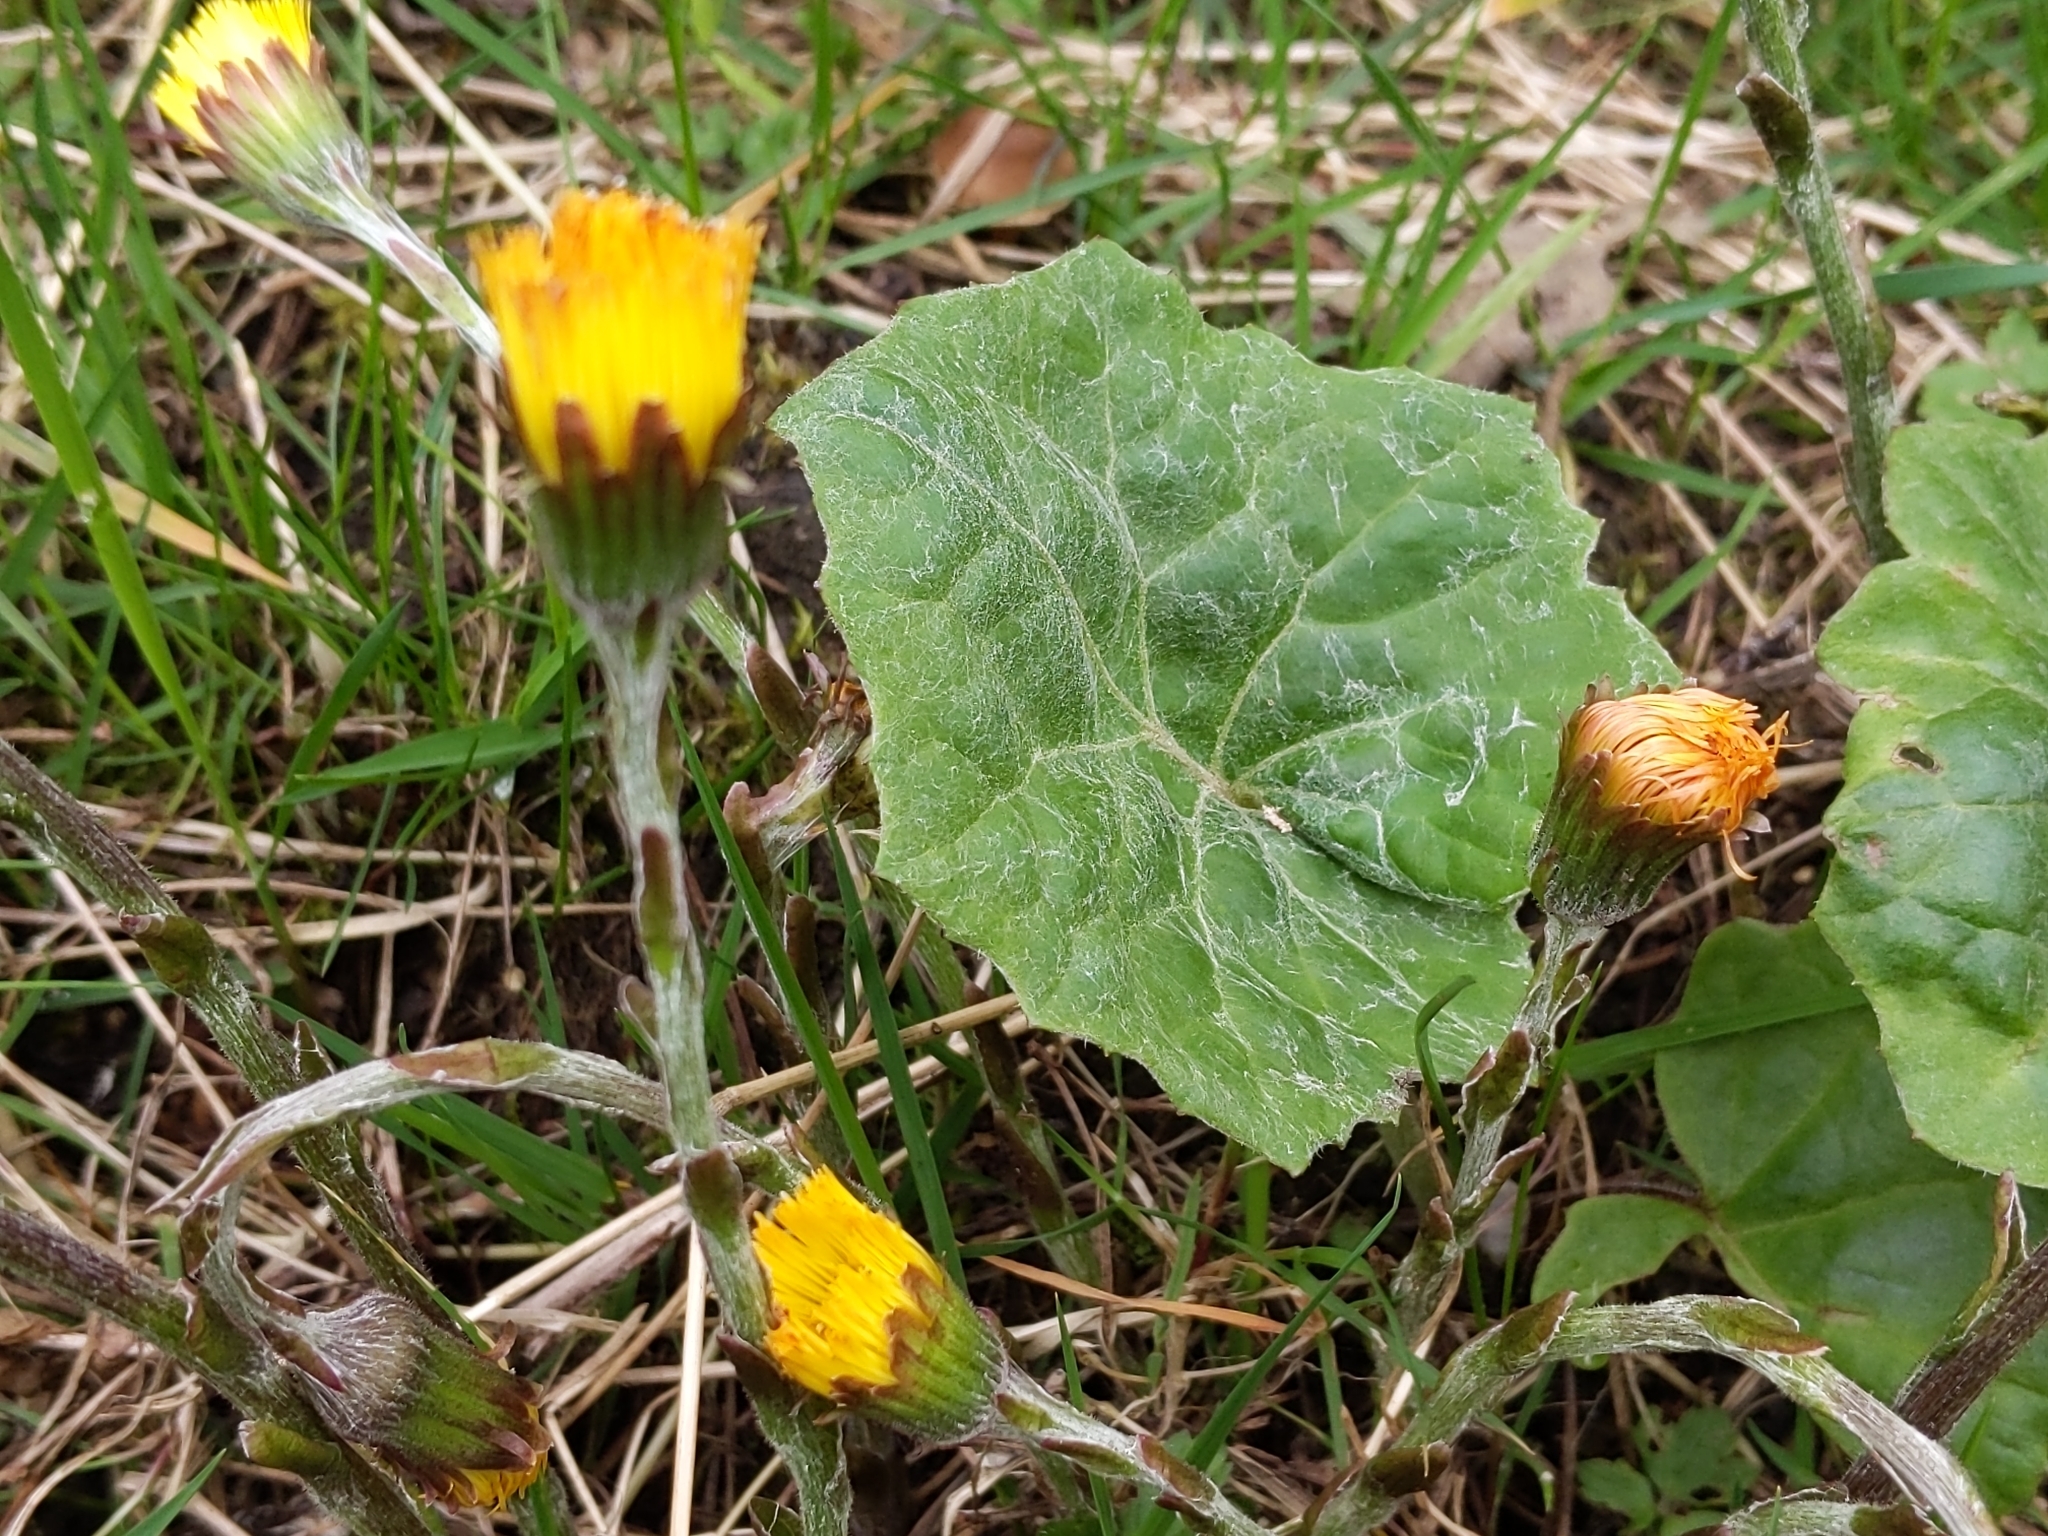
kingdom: Plantae
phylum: Tracheophyta
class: Magnoliopsida
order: Asterales
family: Asteraceae
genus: Tussilago
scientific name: Tussilago farfara
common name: Coltsfoot
